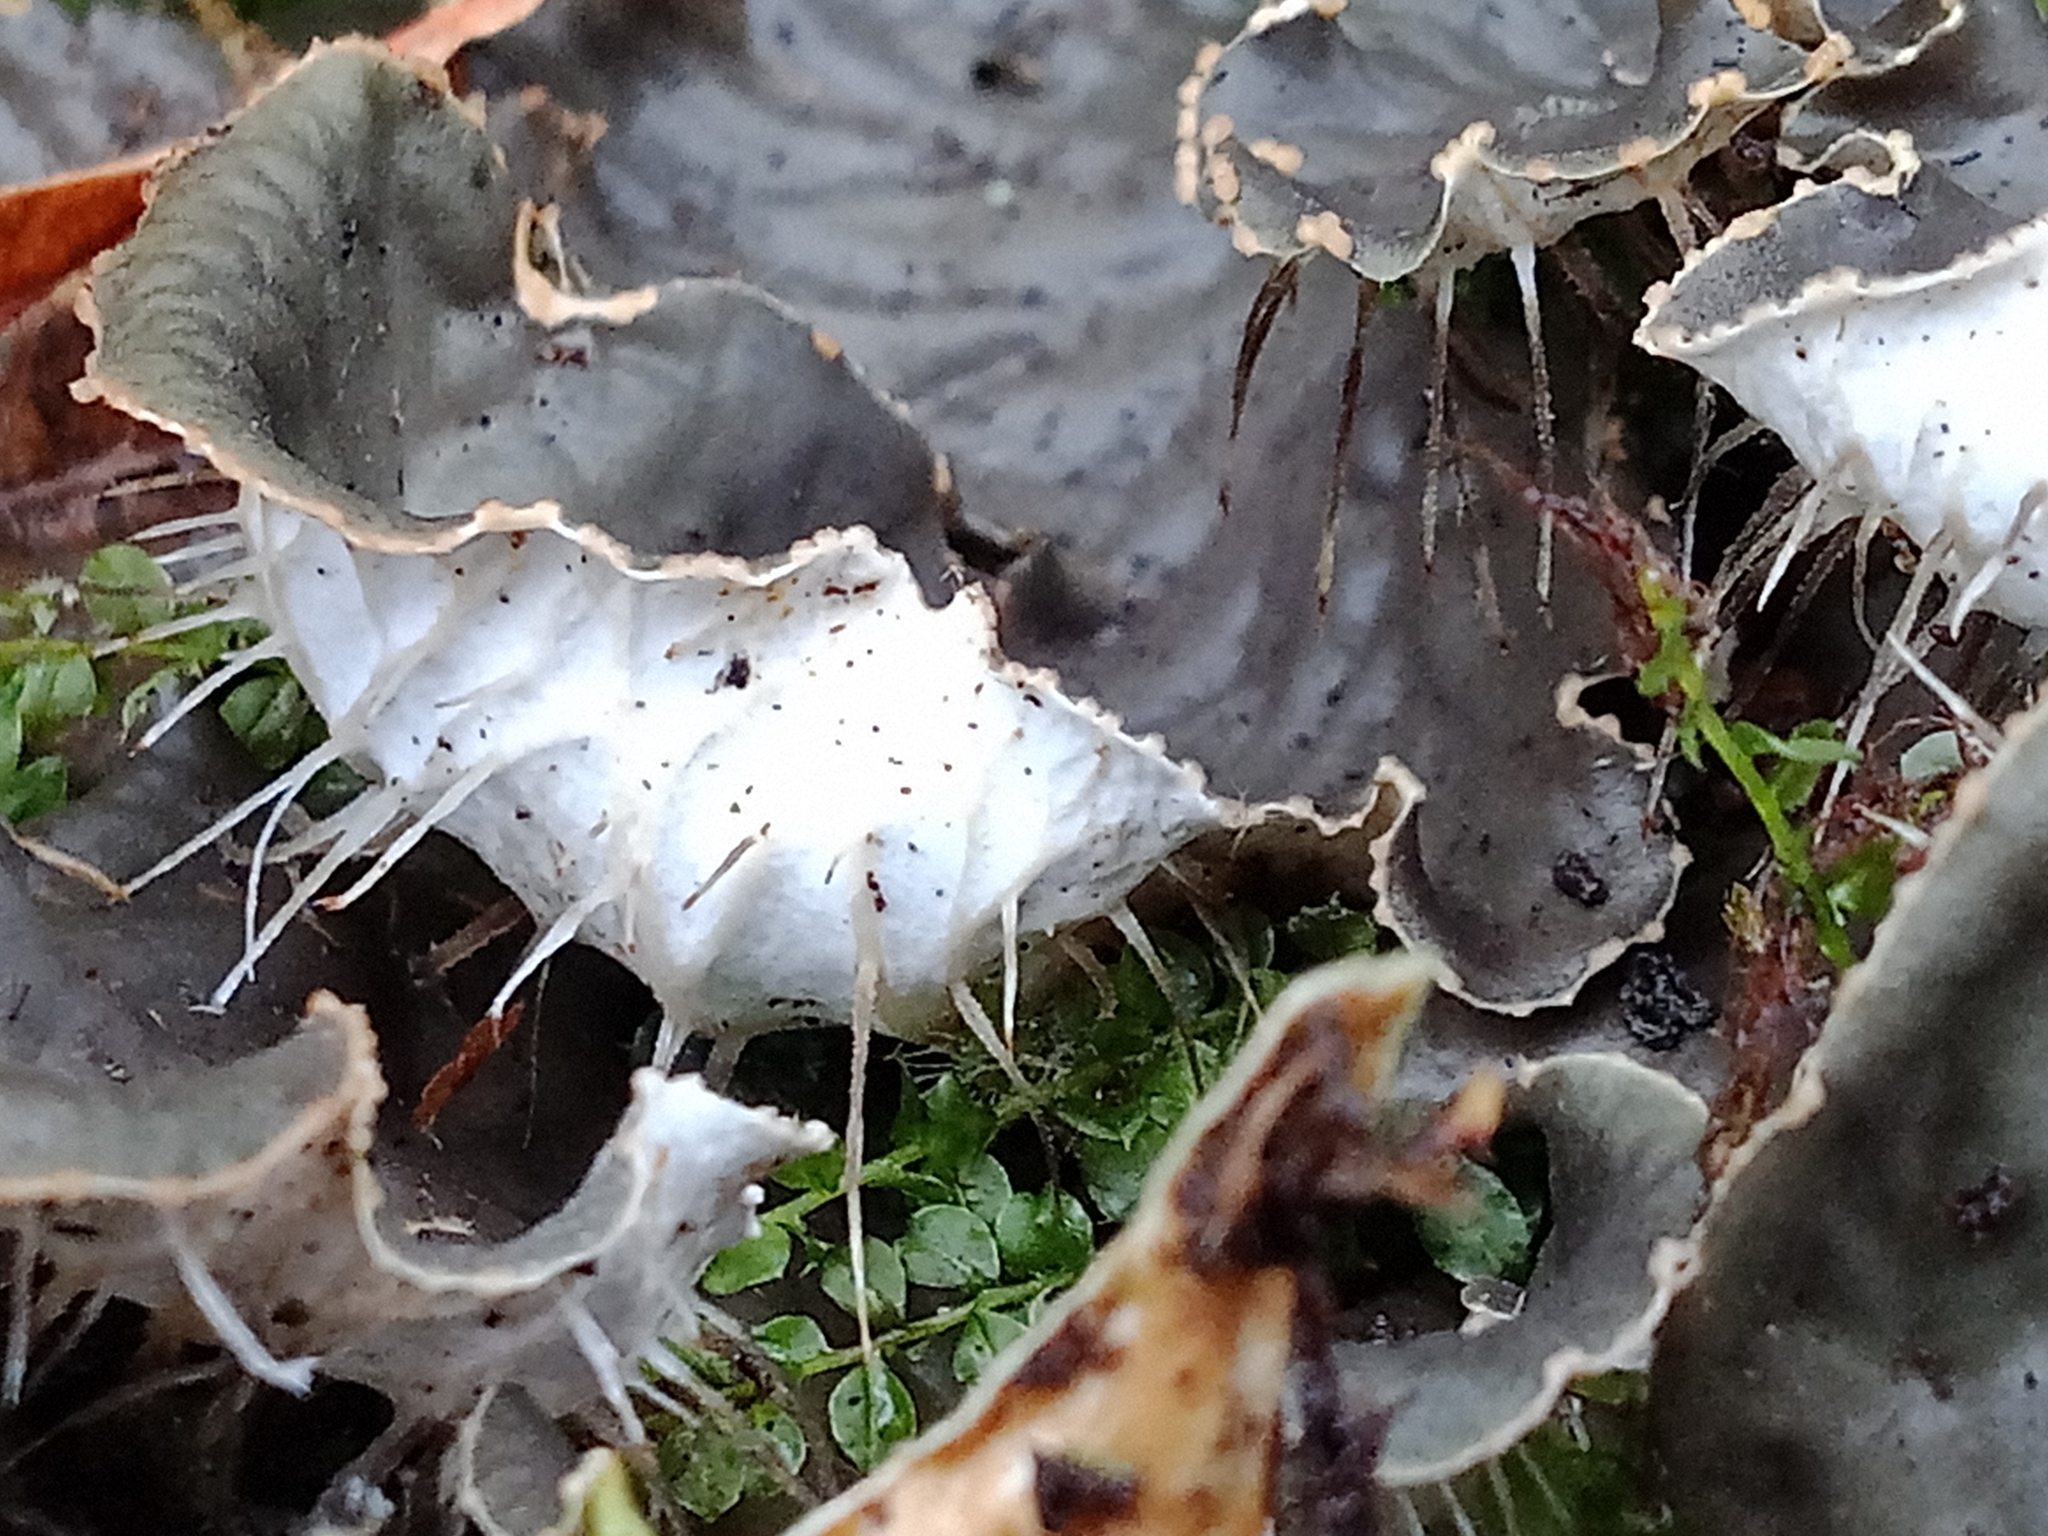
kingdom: Fungi
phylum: Ascomycota
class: Lecanoromycetes
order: Peltigerales
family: Peltigeraceae
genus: Peltigera
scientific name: Peltigera praetextata
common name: Scaly dog-lichen
